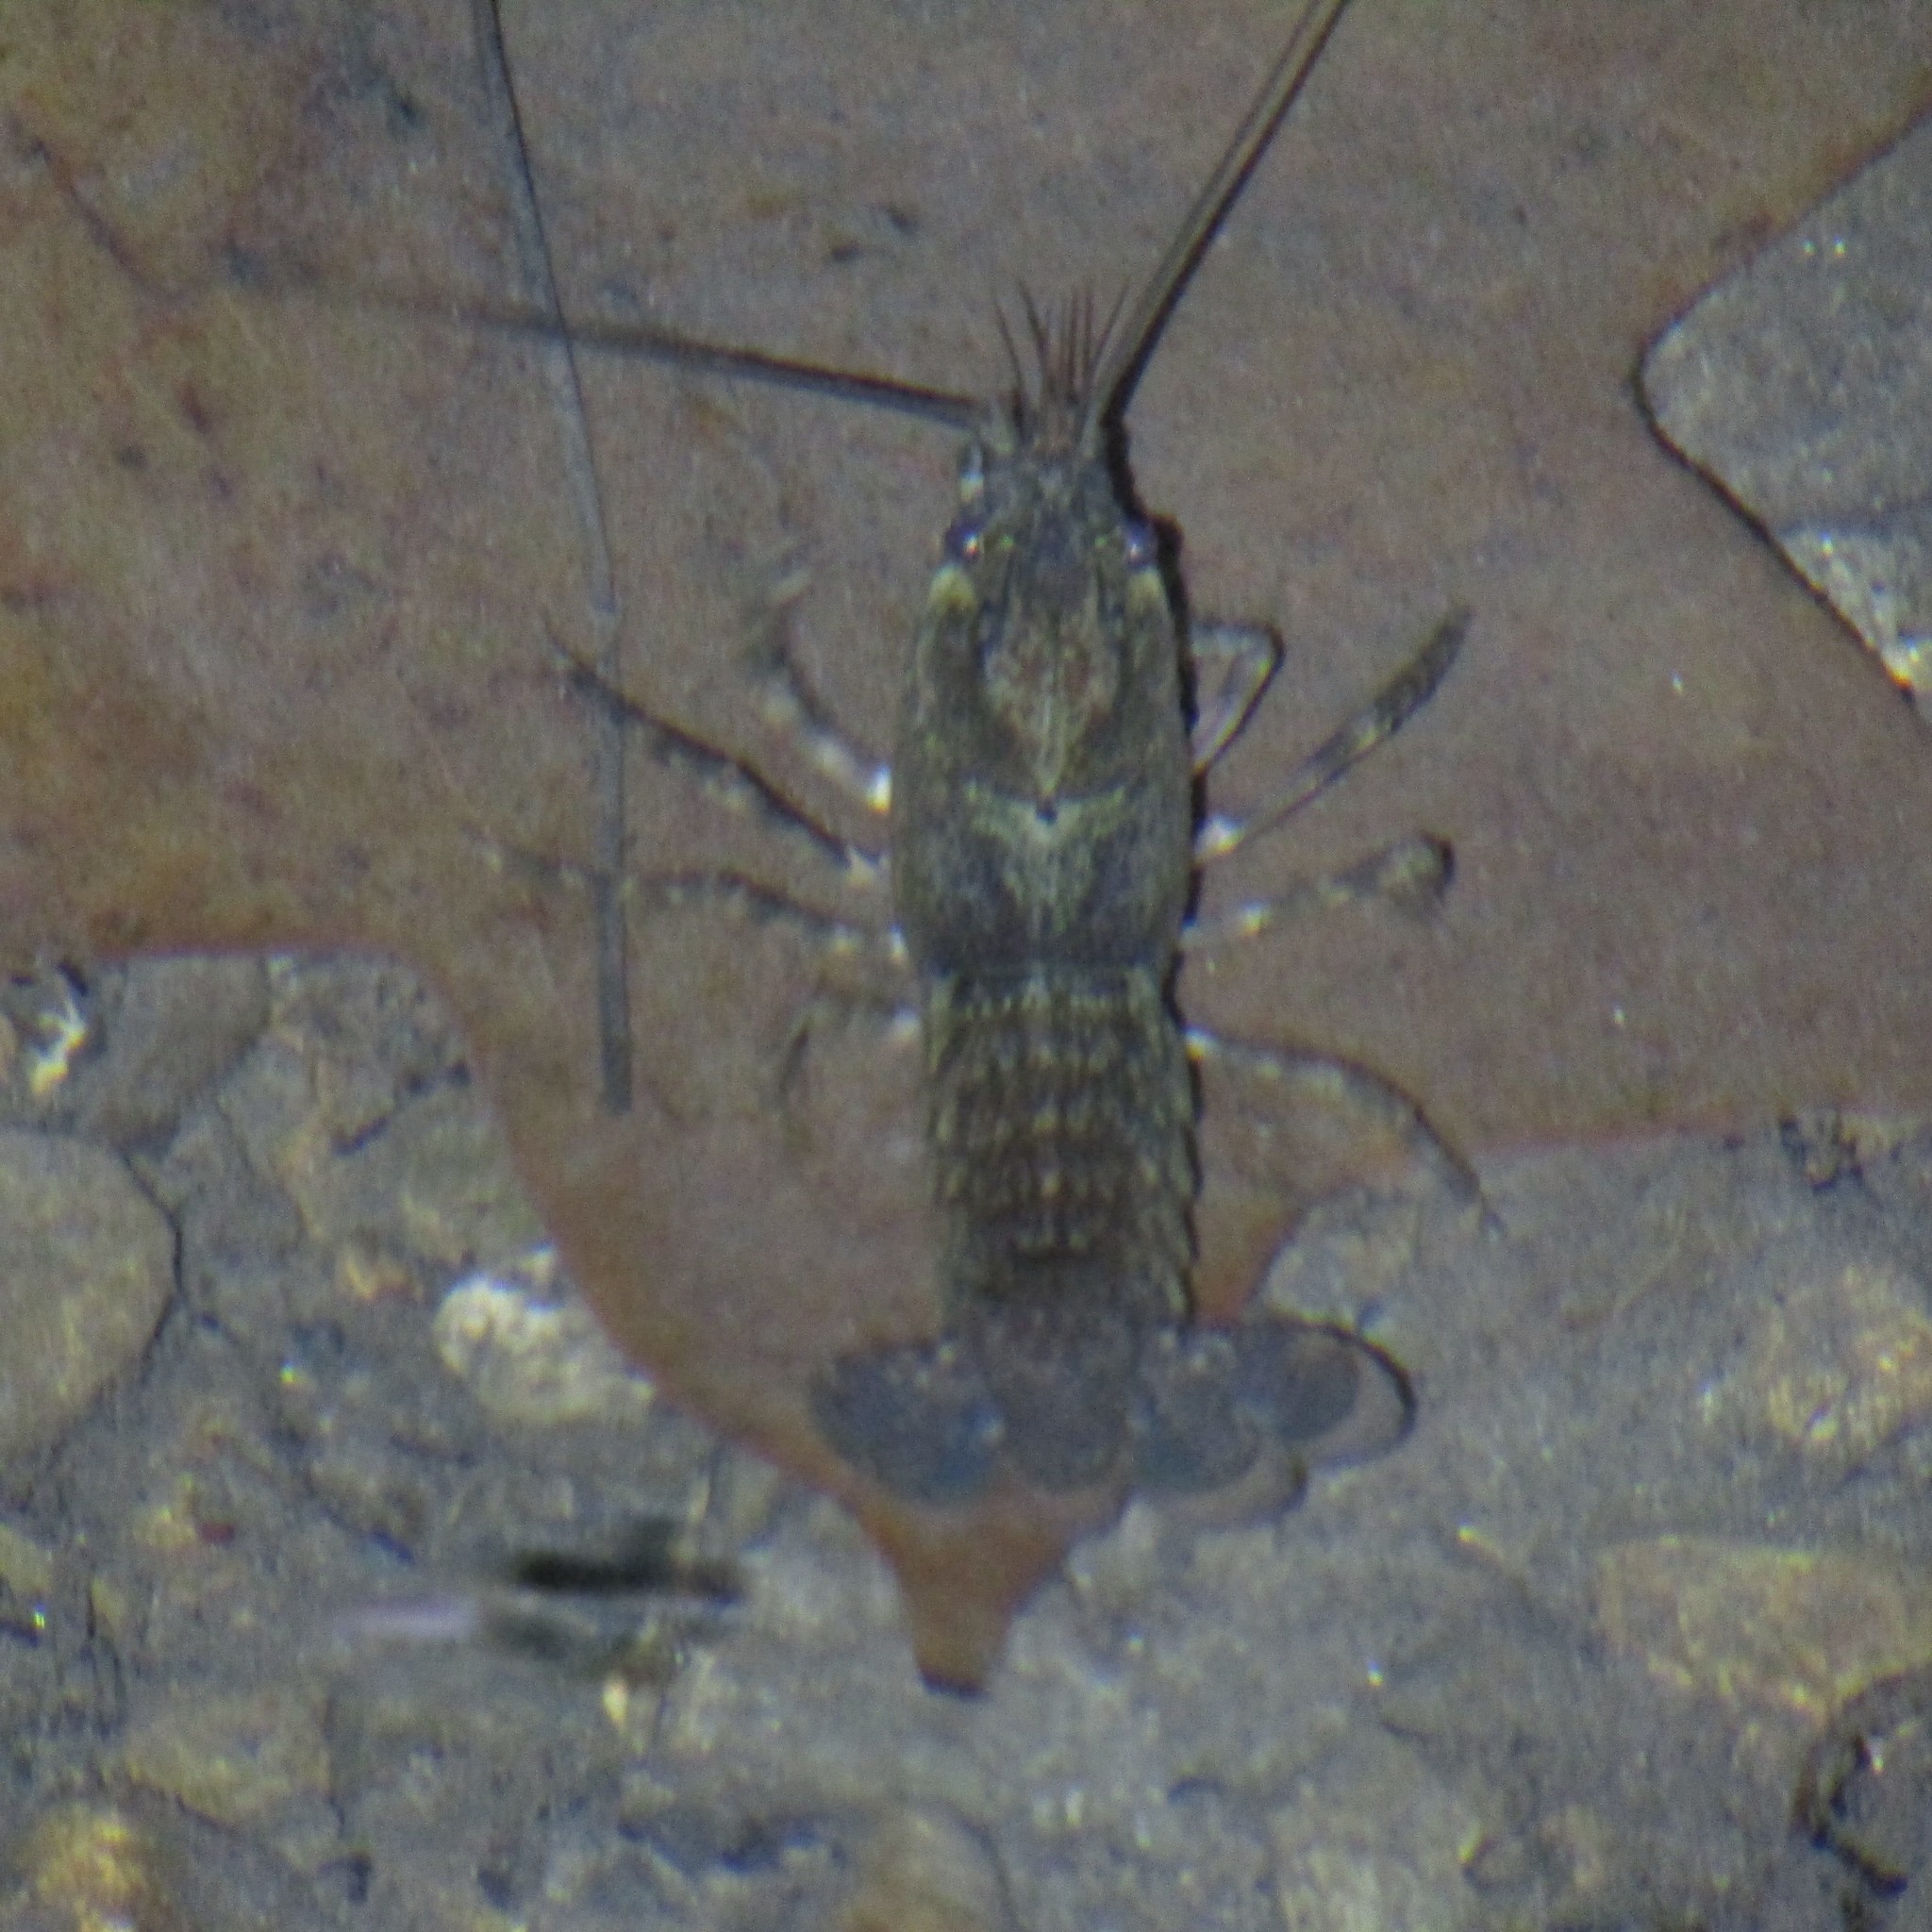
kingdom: Animalia
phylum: Arthropoda
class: Malacostraca
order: Decapoda
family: Parastacidae
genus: Paranephrops
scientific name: Paranephrops planifrons
